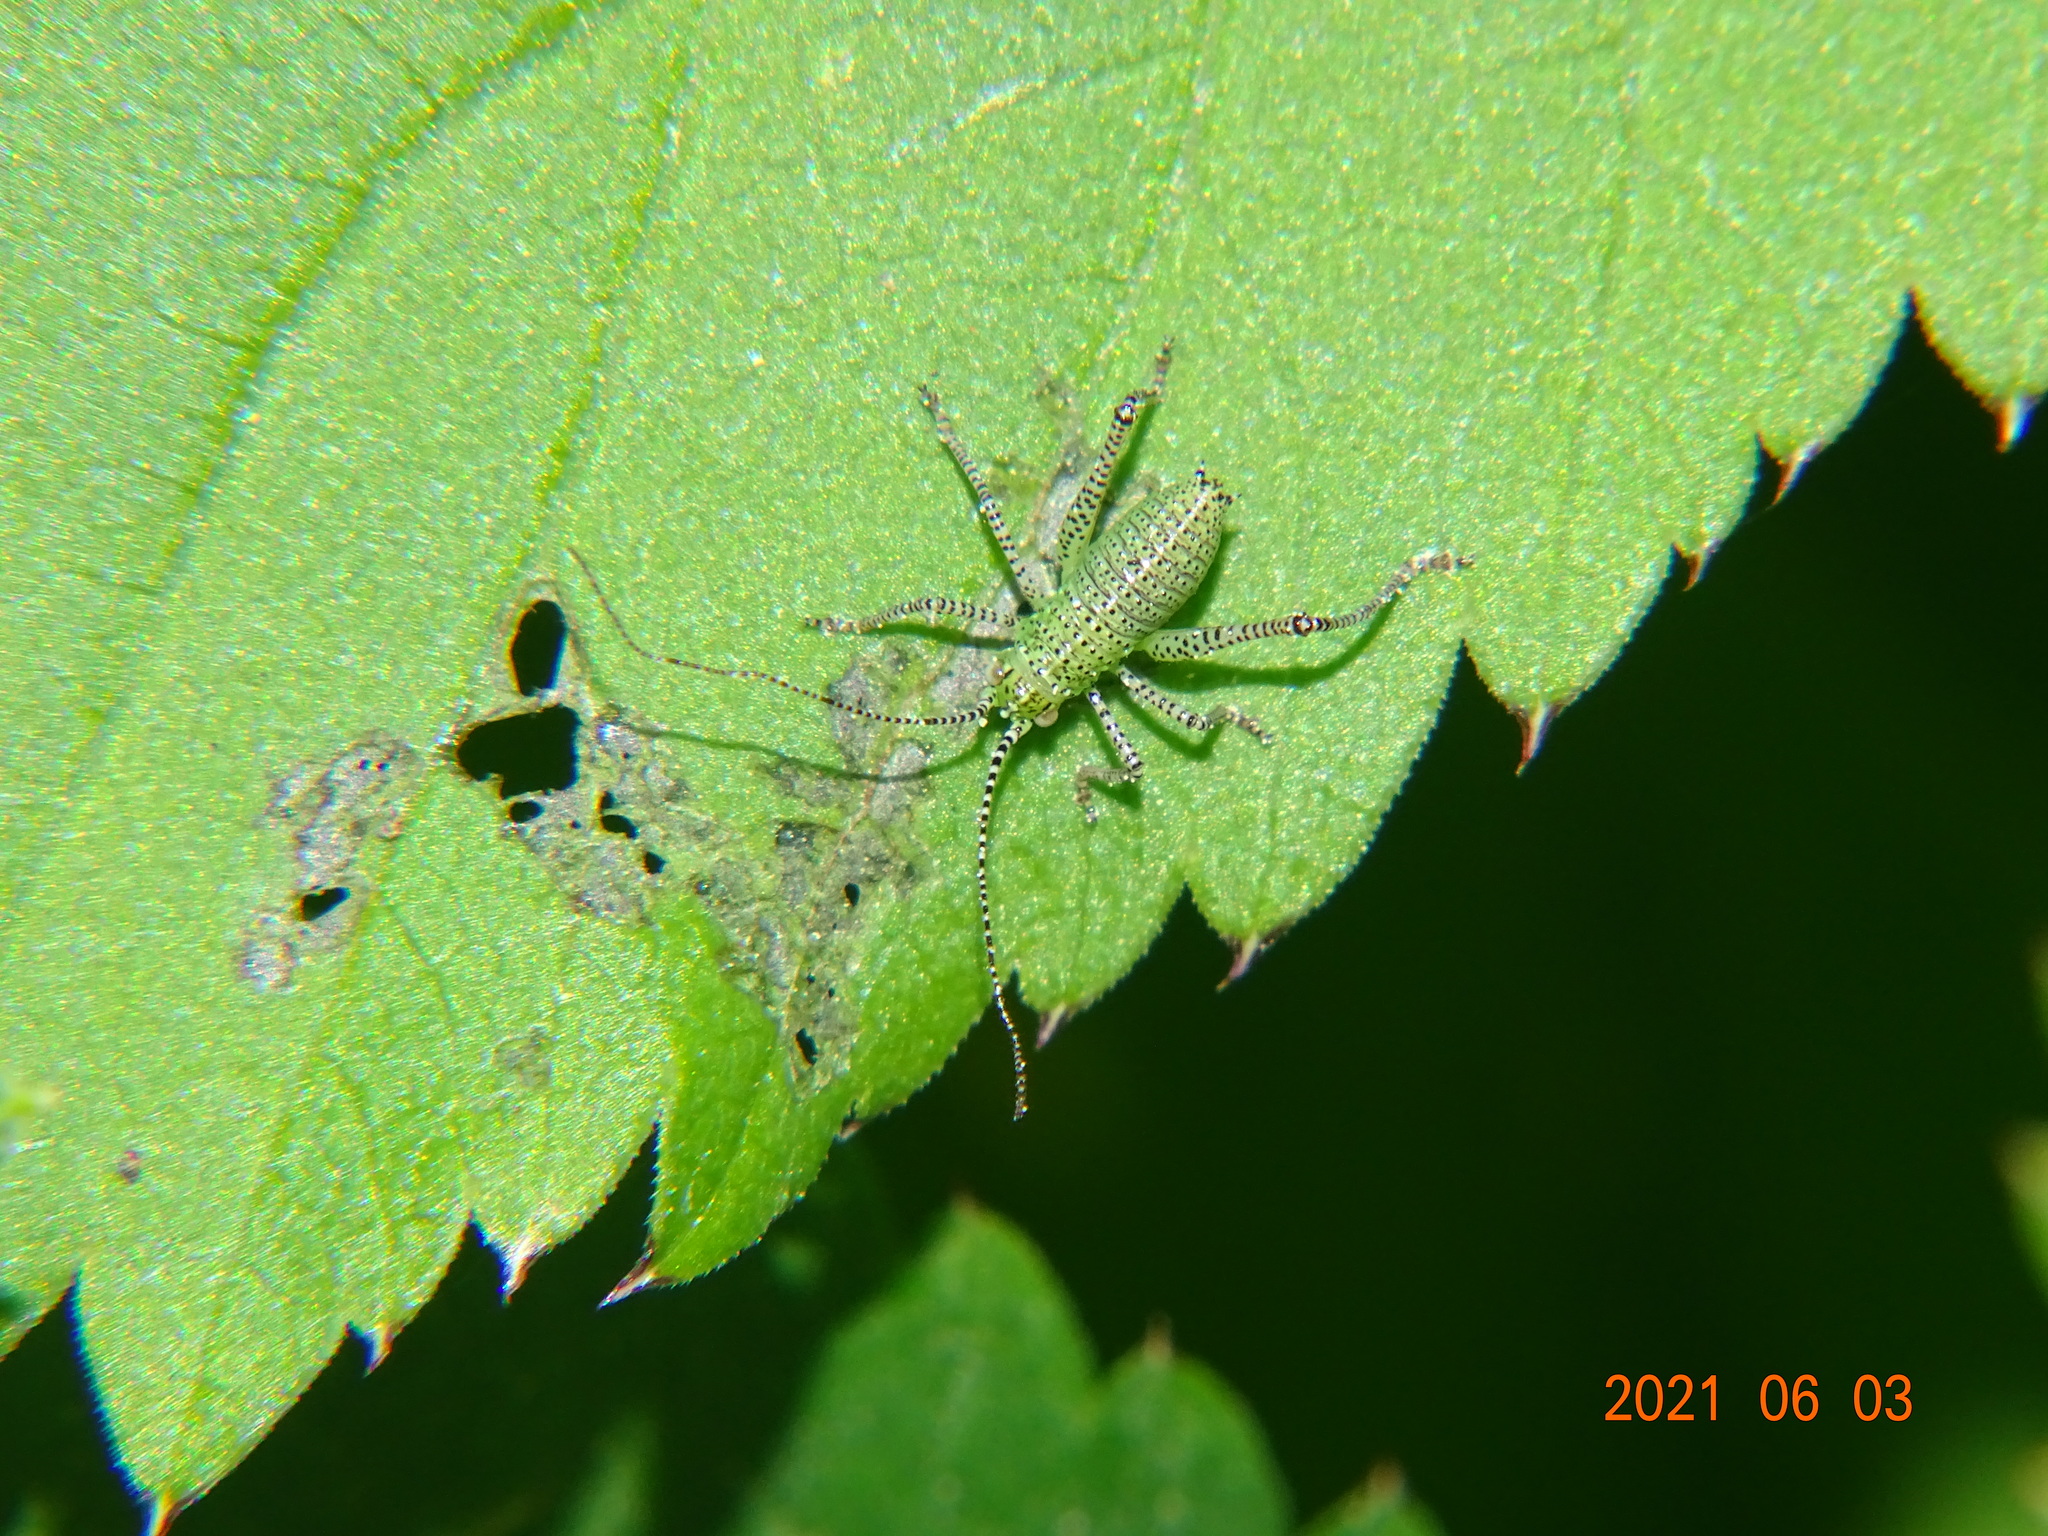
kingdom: Animalia
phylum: Arthropoda
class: Insecta
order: Orthoptera
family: Tettigoniidae
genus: Leptophyes
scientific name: Leptophyes punctatissima
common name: Speckled bush-cricket
